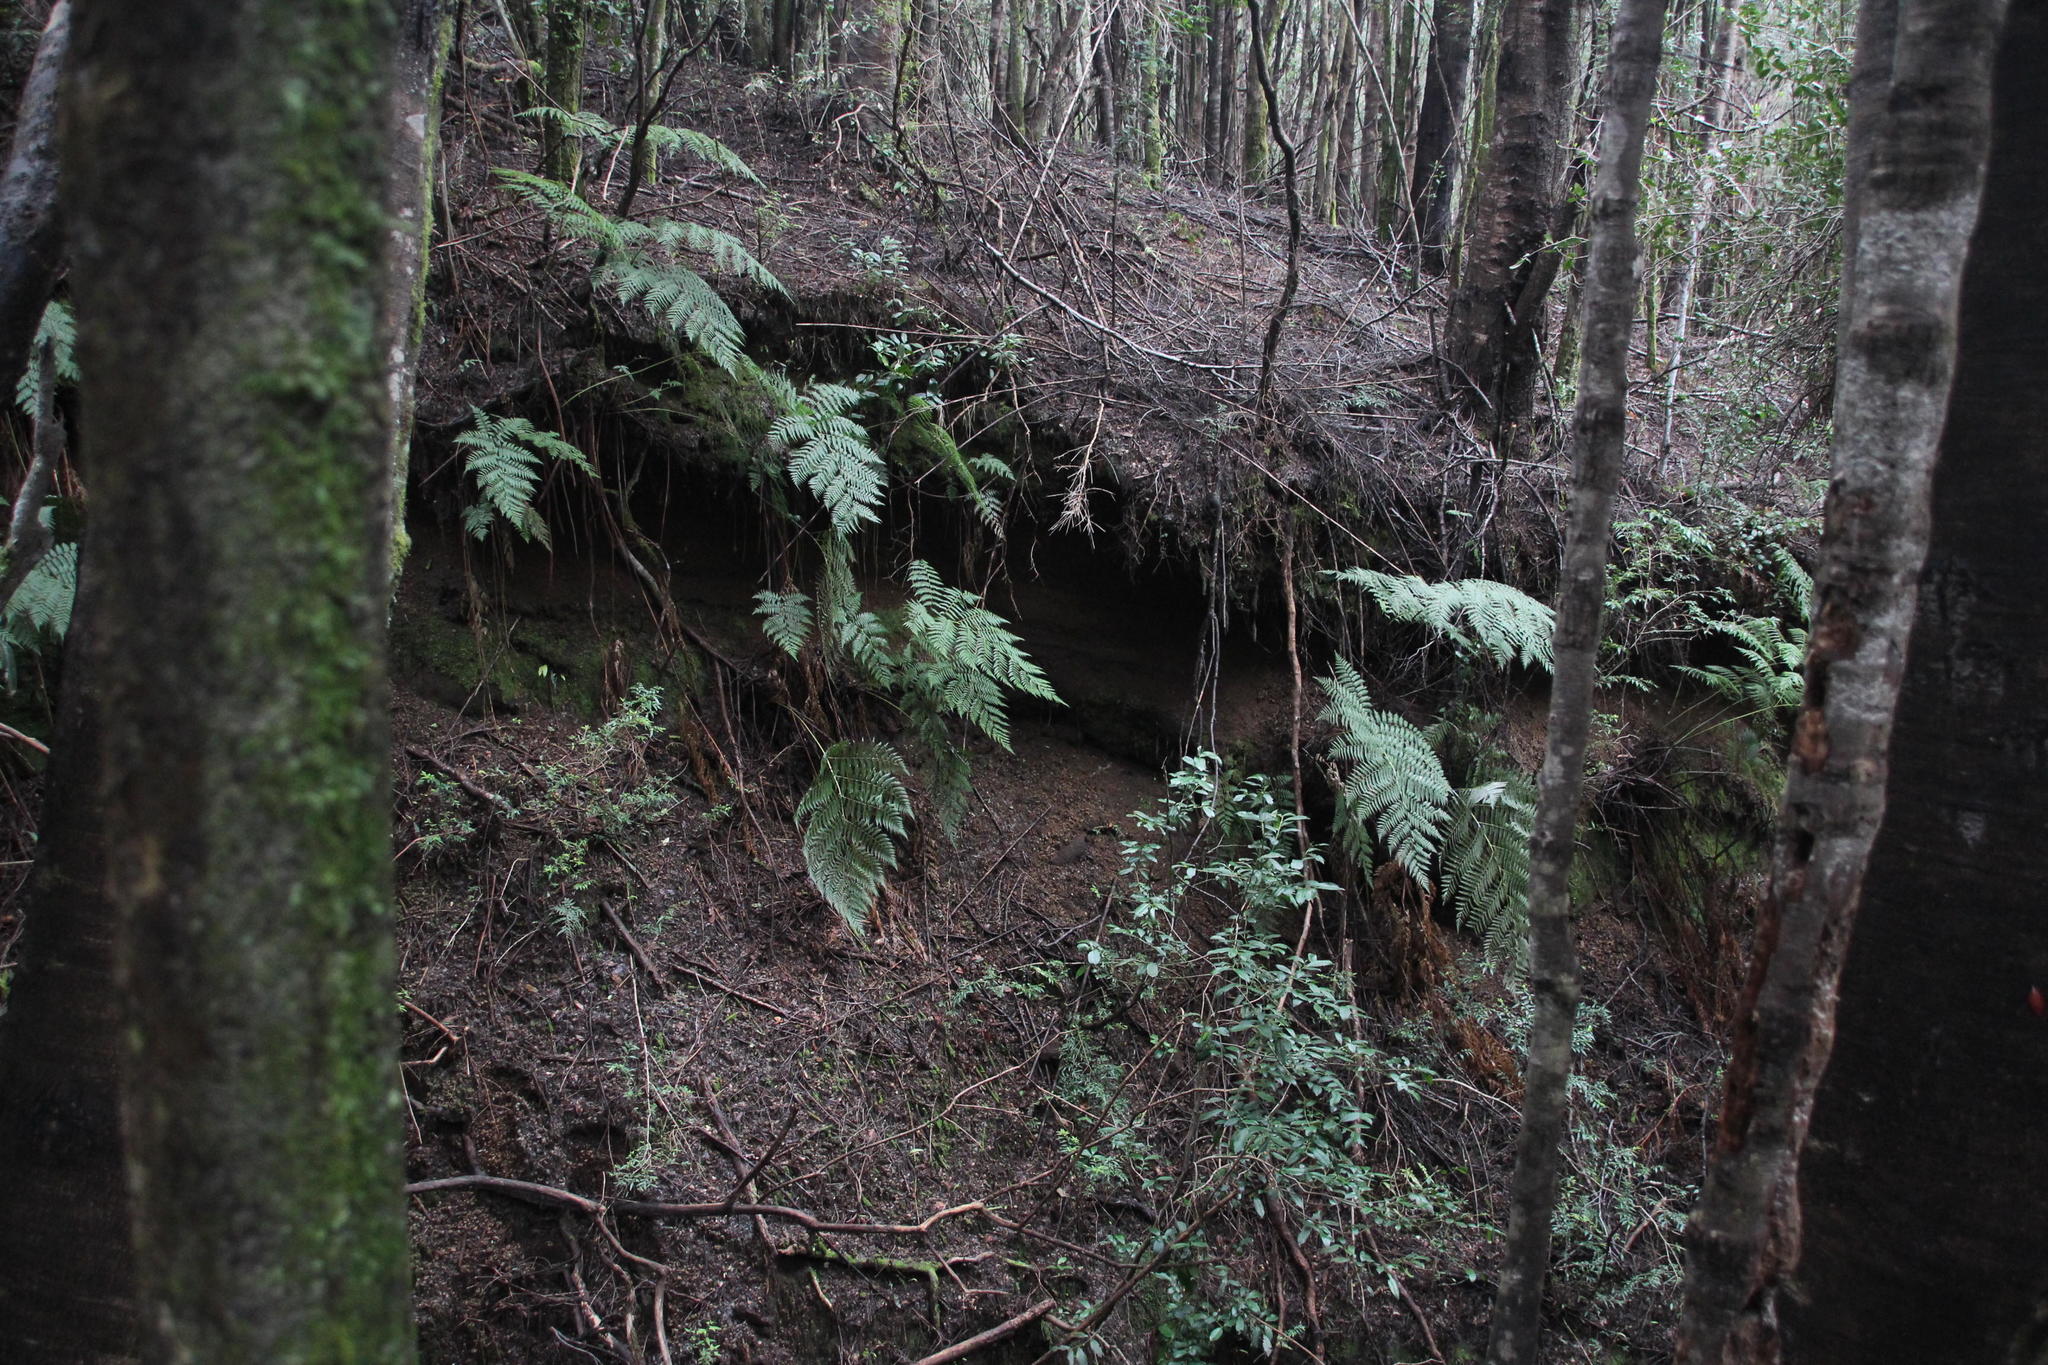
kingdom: Plantae
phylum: Tracheophyta
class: Polypodiopsida
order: Cyatheales
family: Dicksoniaceae
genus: Lophosoria
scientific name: Lophosoria quadripinnata
